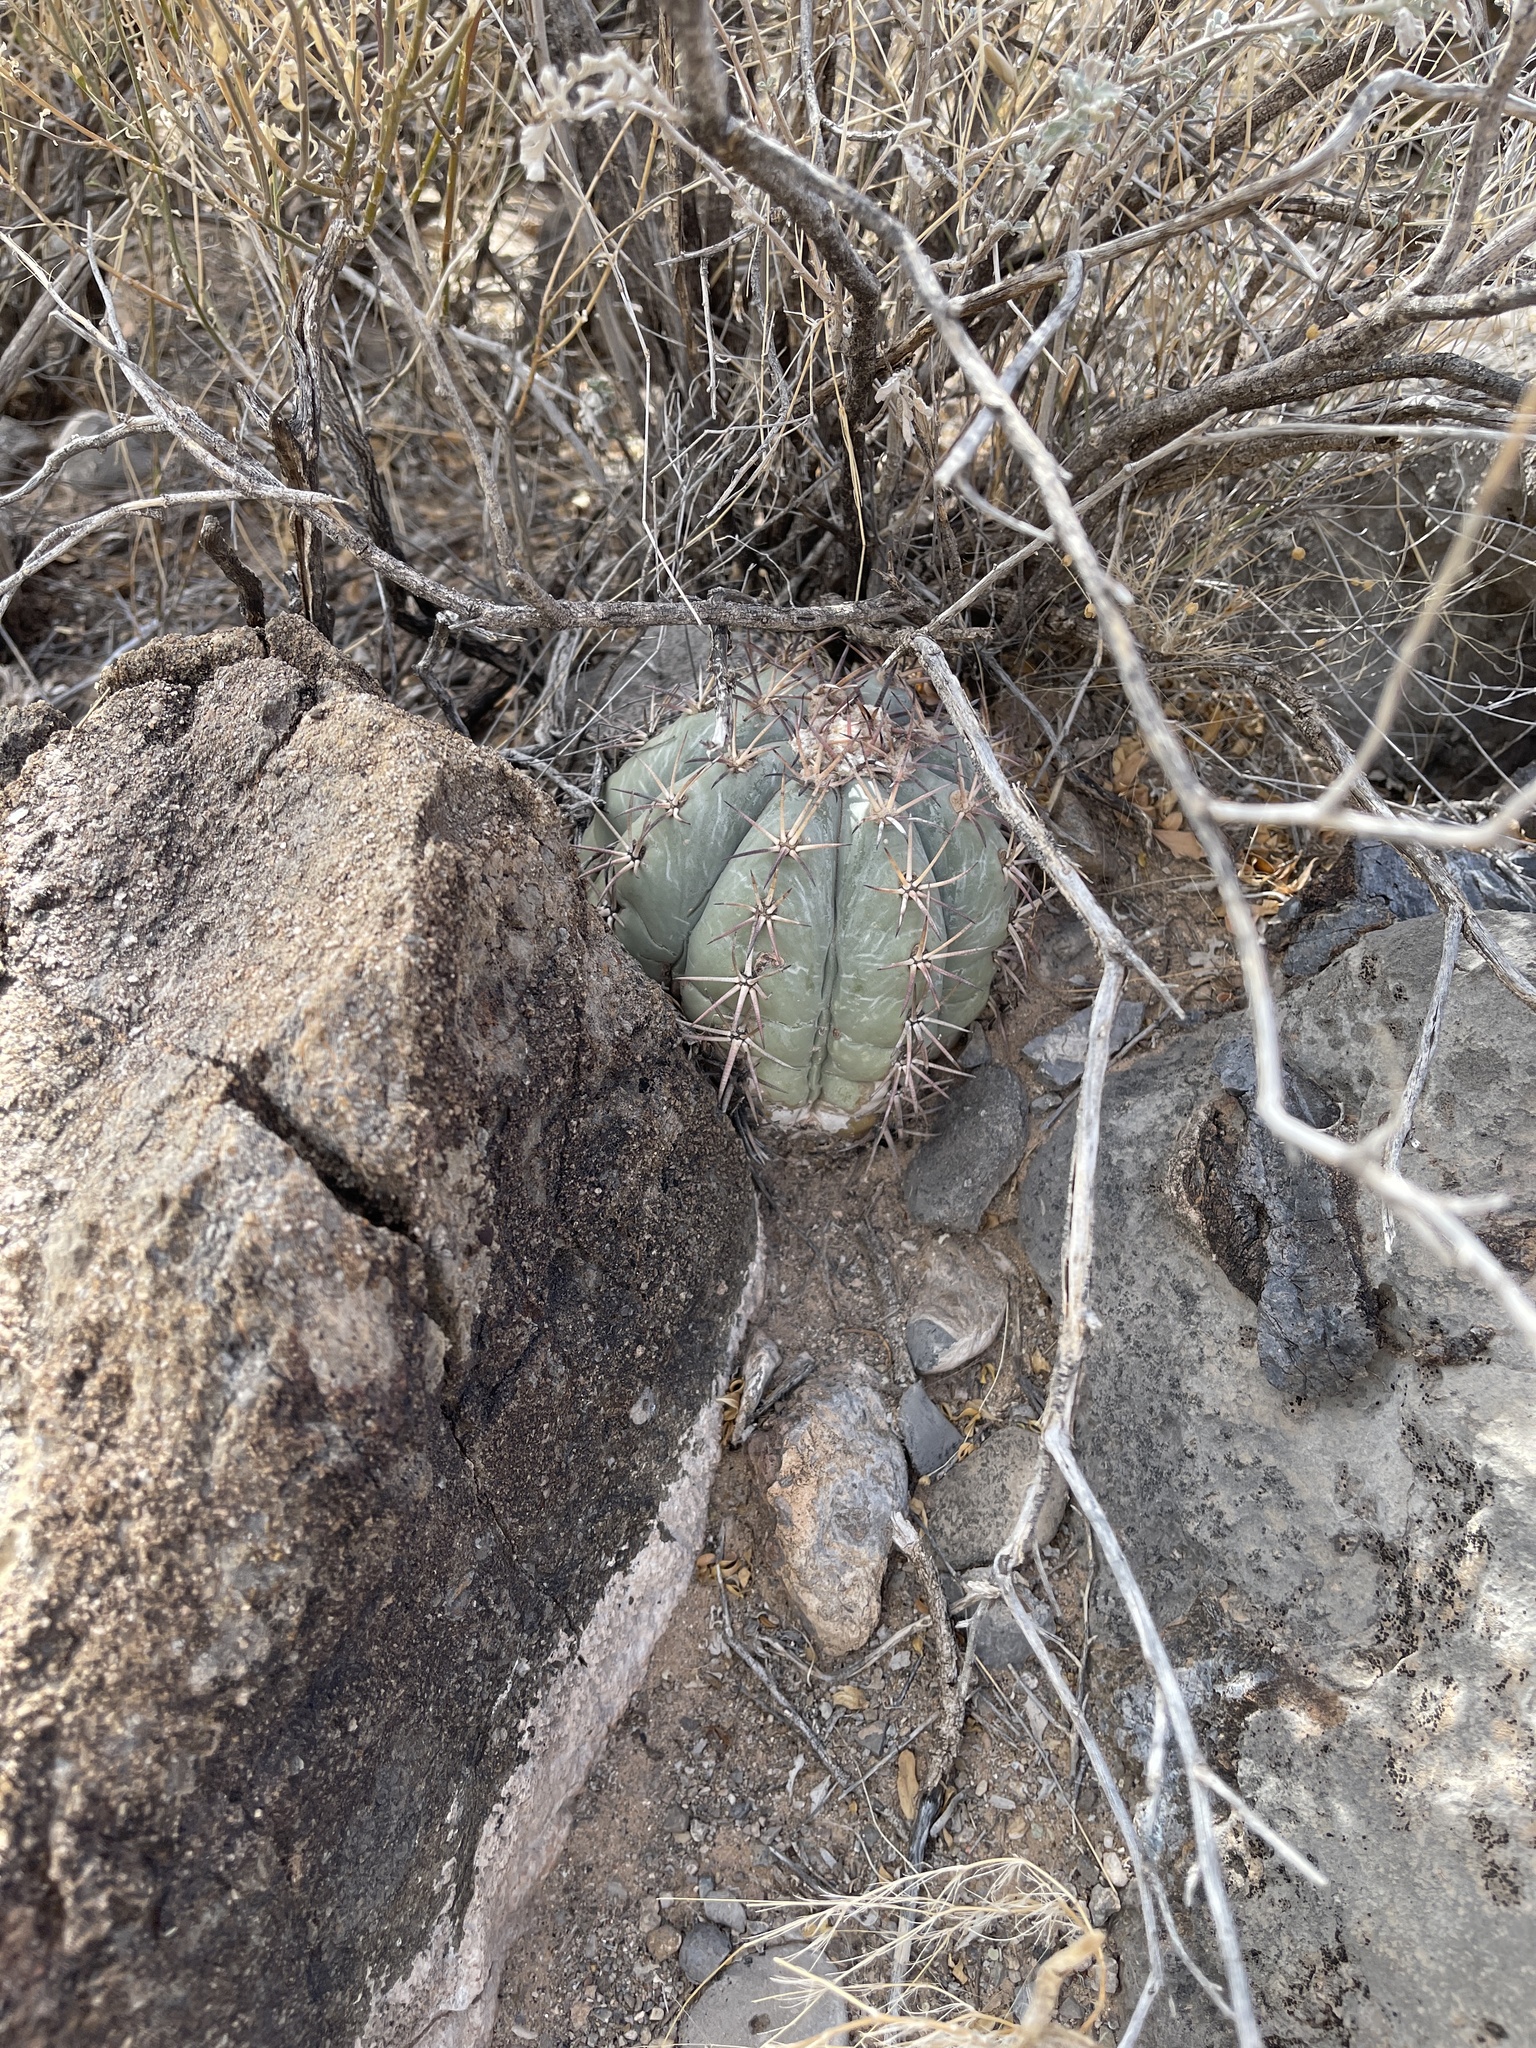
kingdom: Plantae
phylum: Tracheophyta
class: Magnoliopsida
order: Caryophyllales
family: Cactaceae
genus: Echinocactus
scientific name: Echinocactus horizonthalonius
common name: Devilshead
